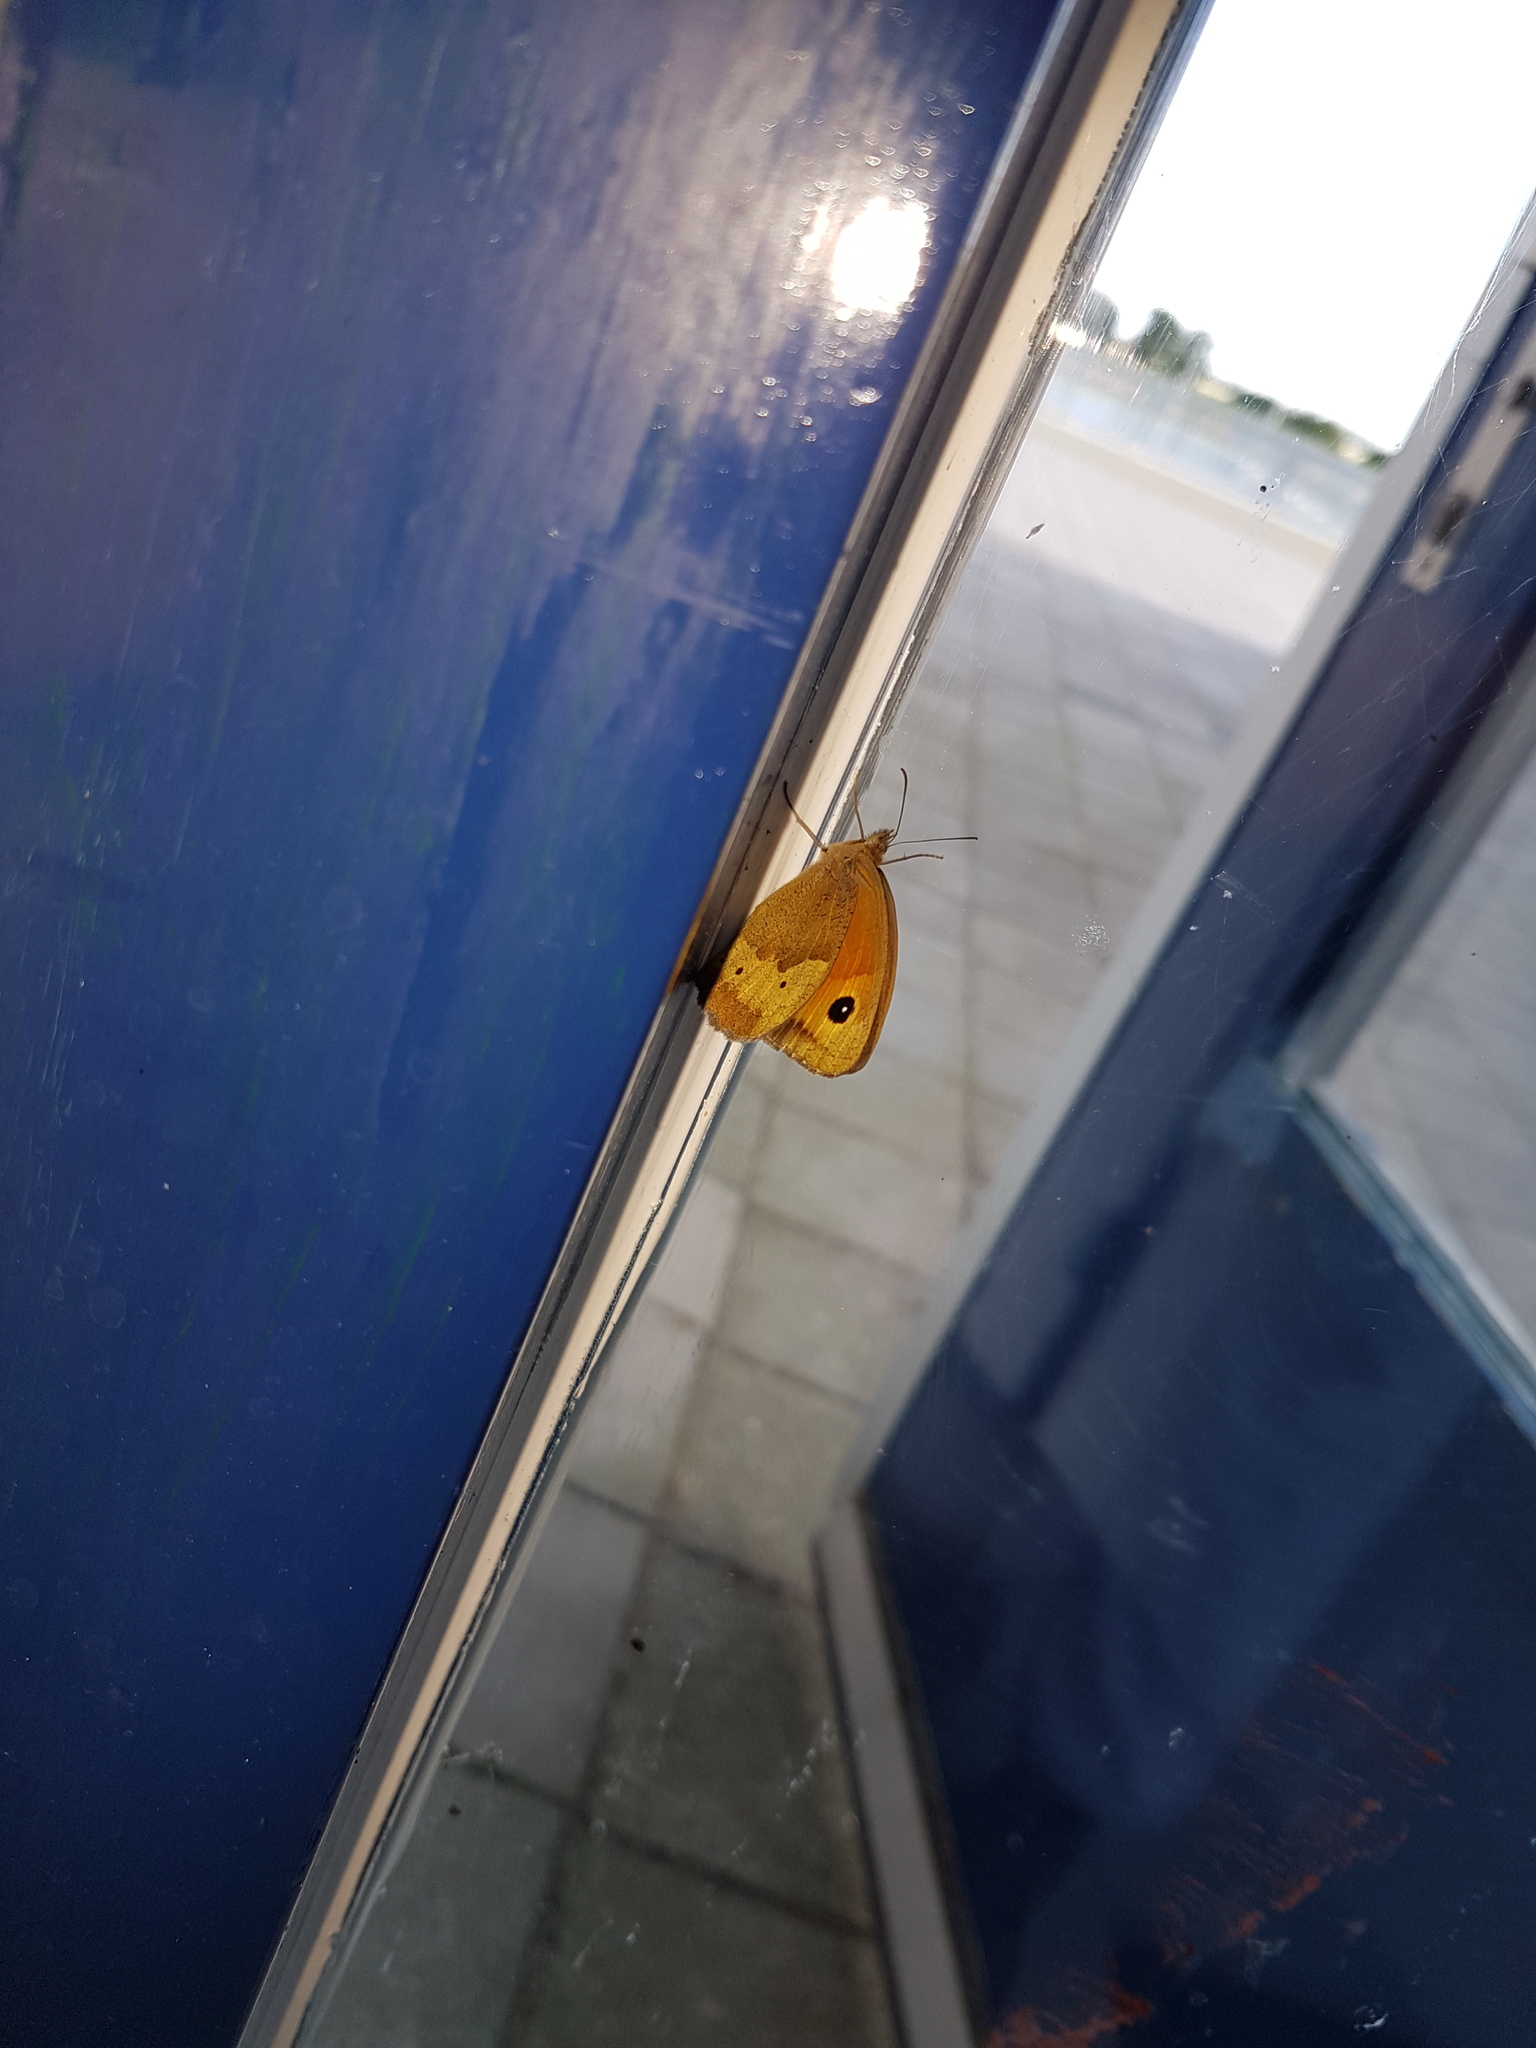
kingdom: Animalia
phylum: Arthropoda
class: Insecta
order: Lepidoptera
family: Nymphalidae
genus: Maniola
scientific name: Maniola jurtina
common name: Meadow brown
